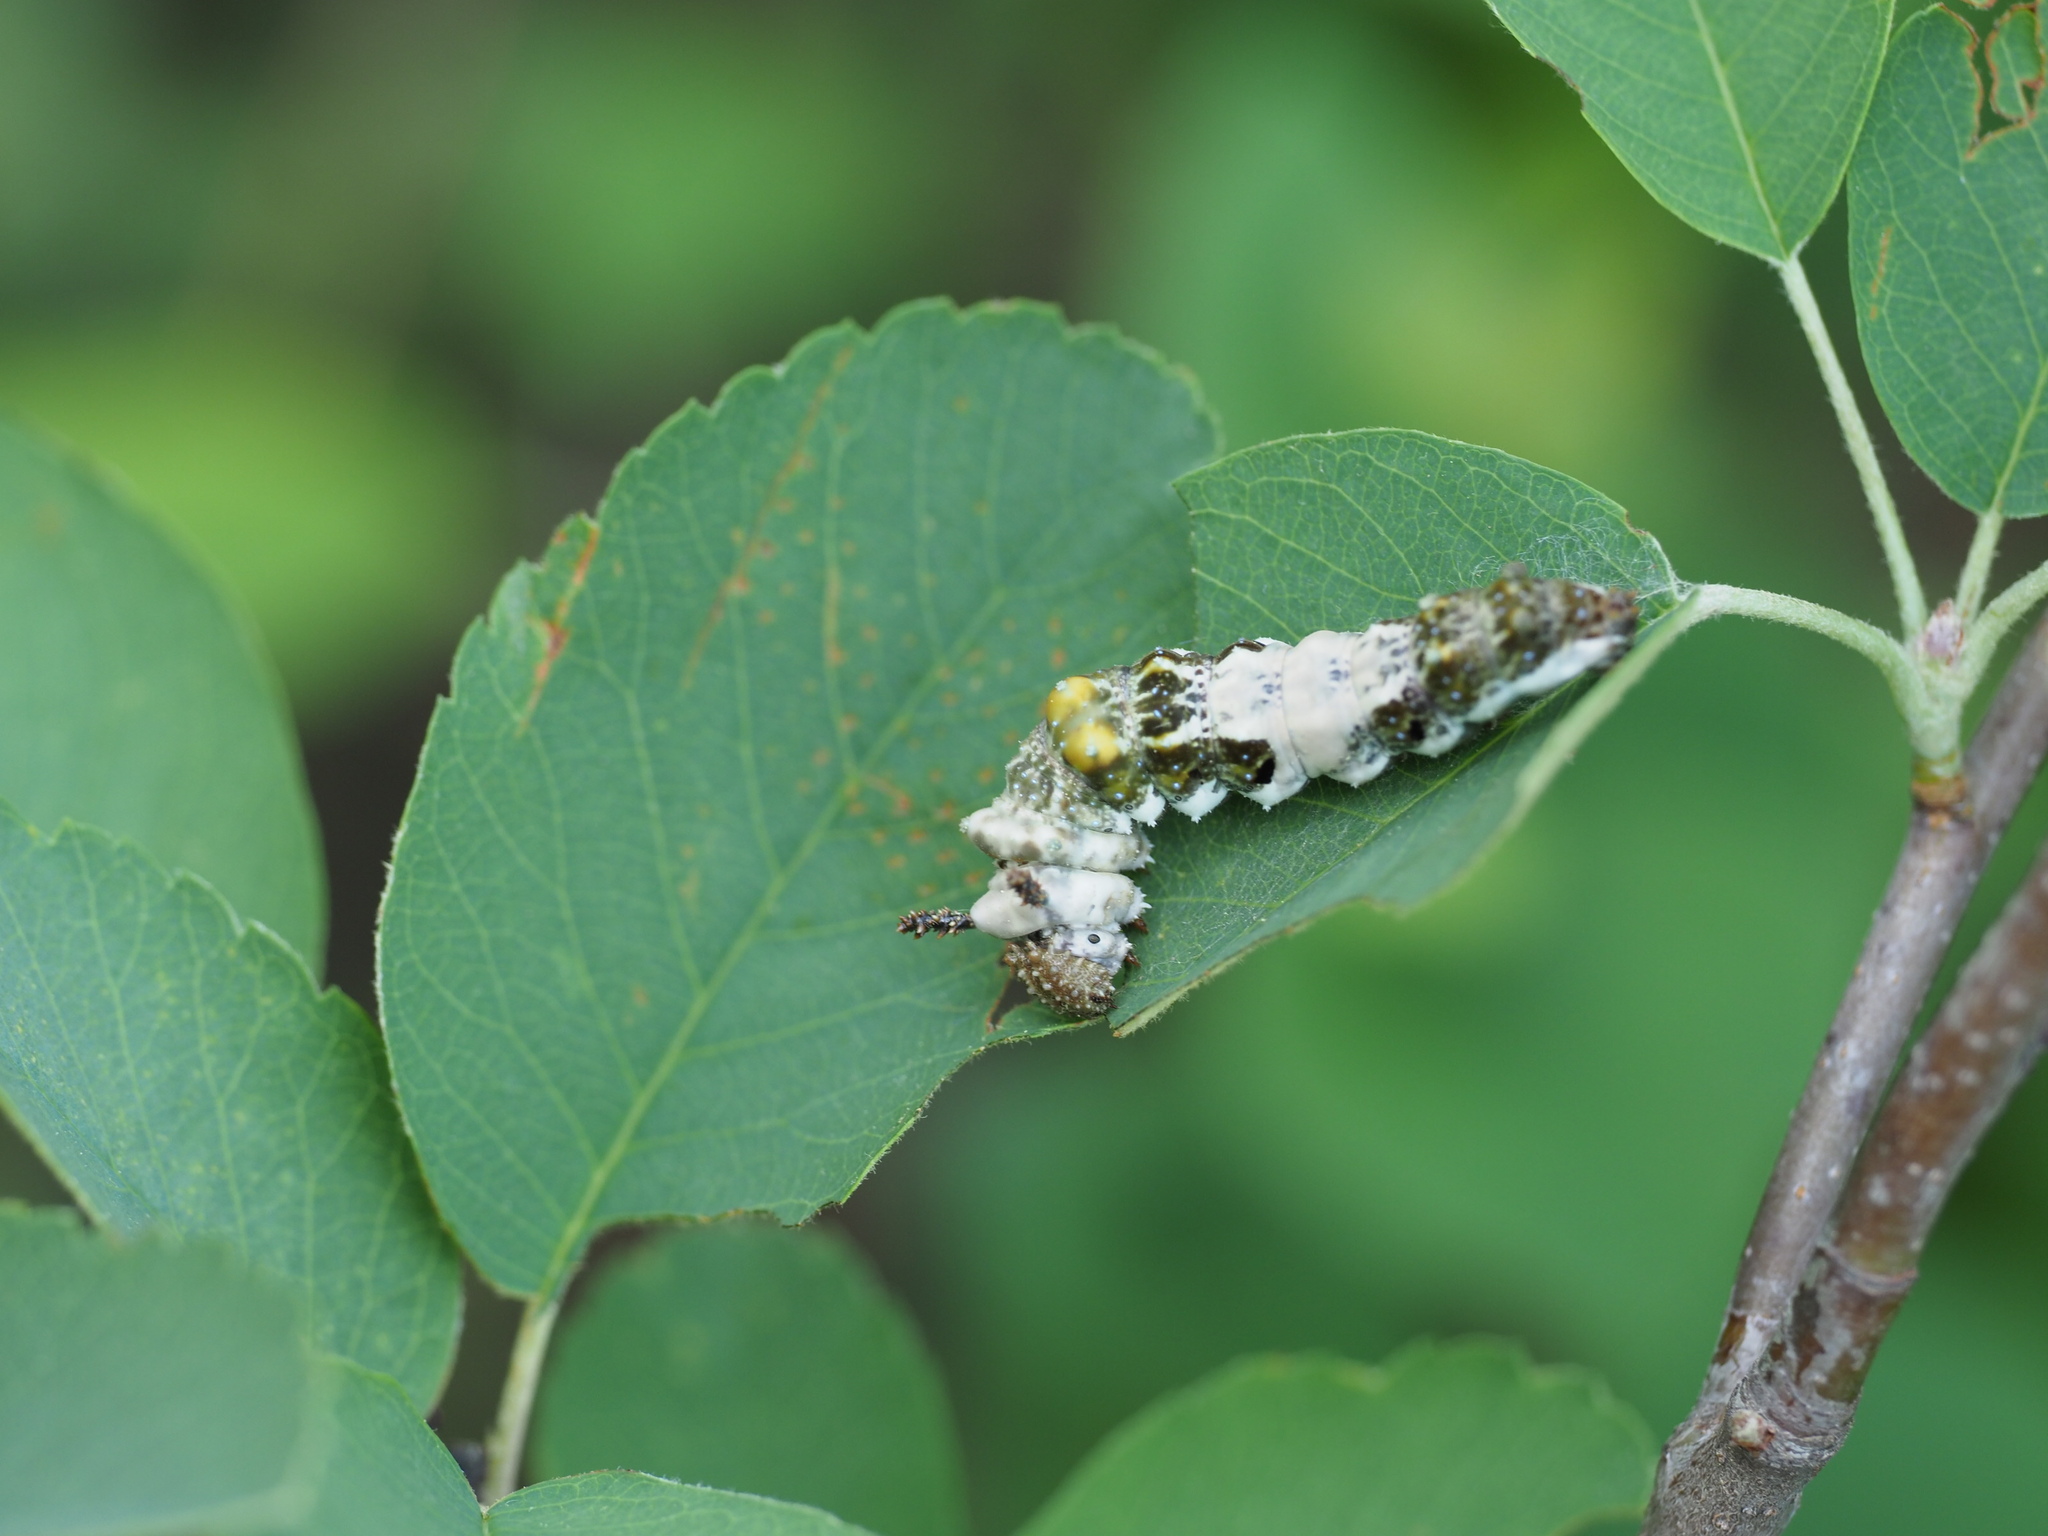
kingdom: Animalia
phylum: Arthropoda
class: Insecta
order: Lepidoptera
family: Nymphalidae
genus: Limenitis
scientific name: Limenitis lorquini
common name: Lorquin's admiral
